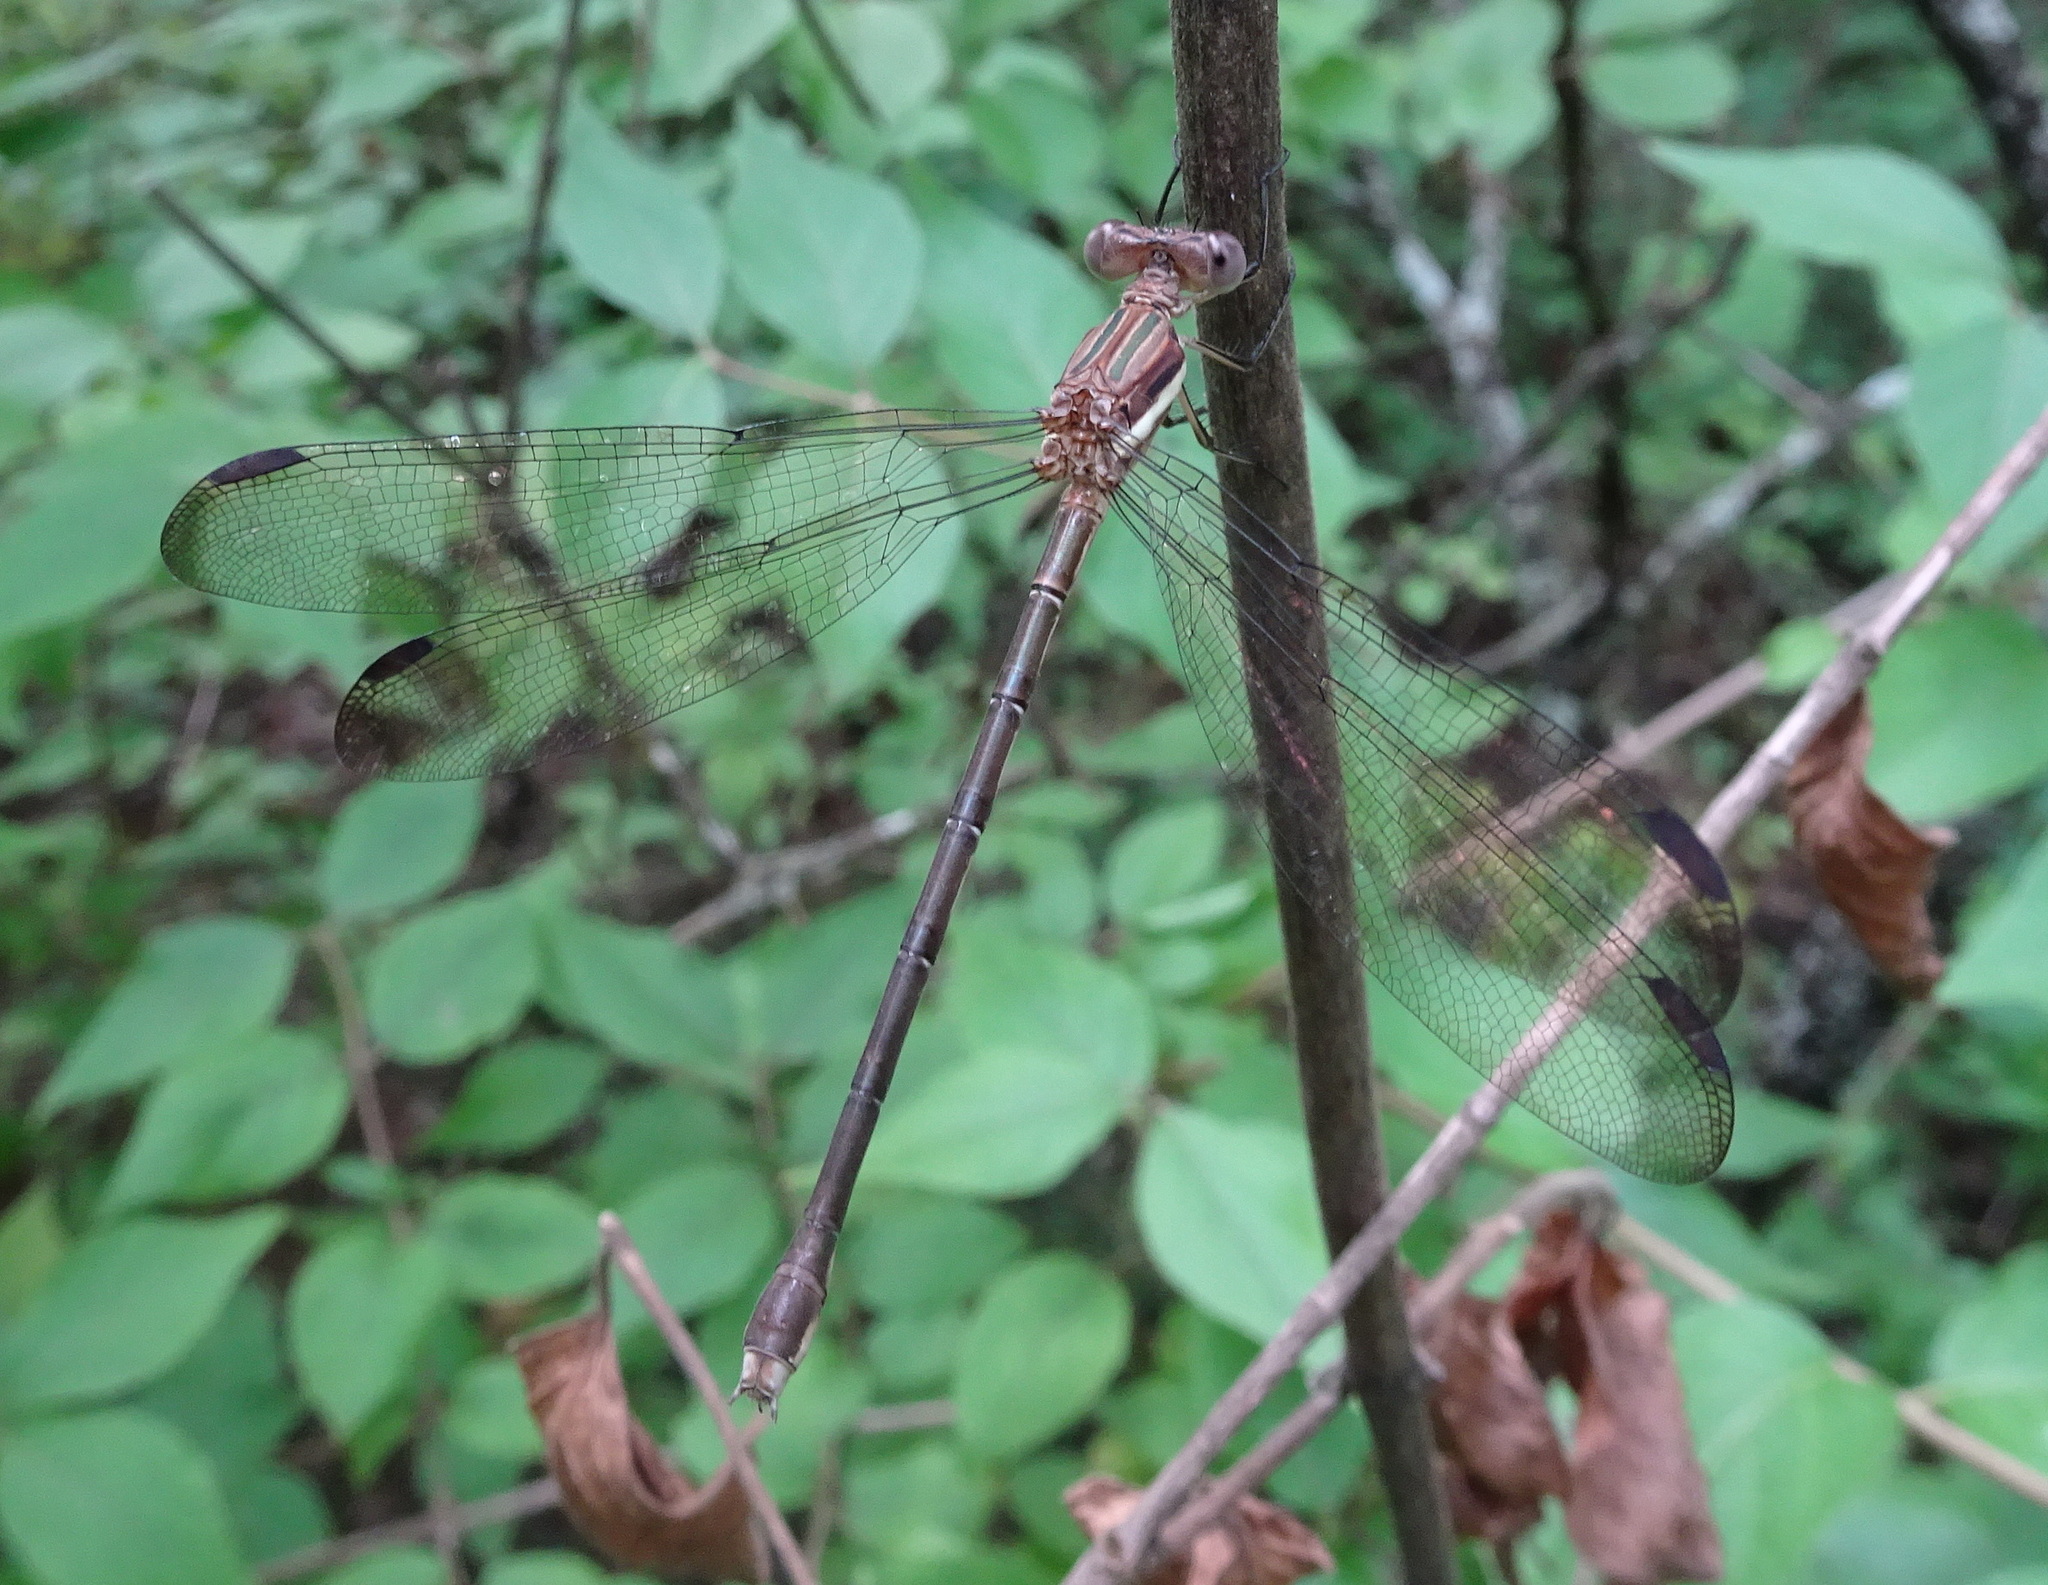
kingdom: Animalia
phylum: Arthropoda
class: Insecta
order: Odonata
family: Lestidae
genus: Archilestes
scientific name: Archilestes grandis
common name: Great spreadwing
